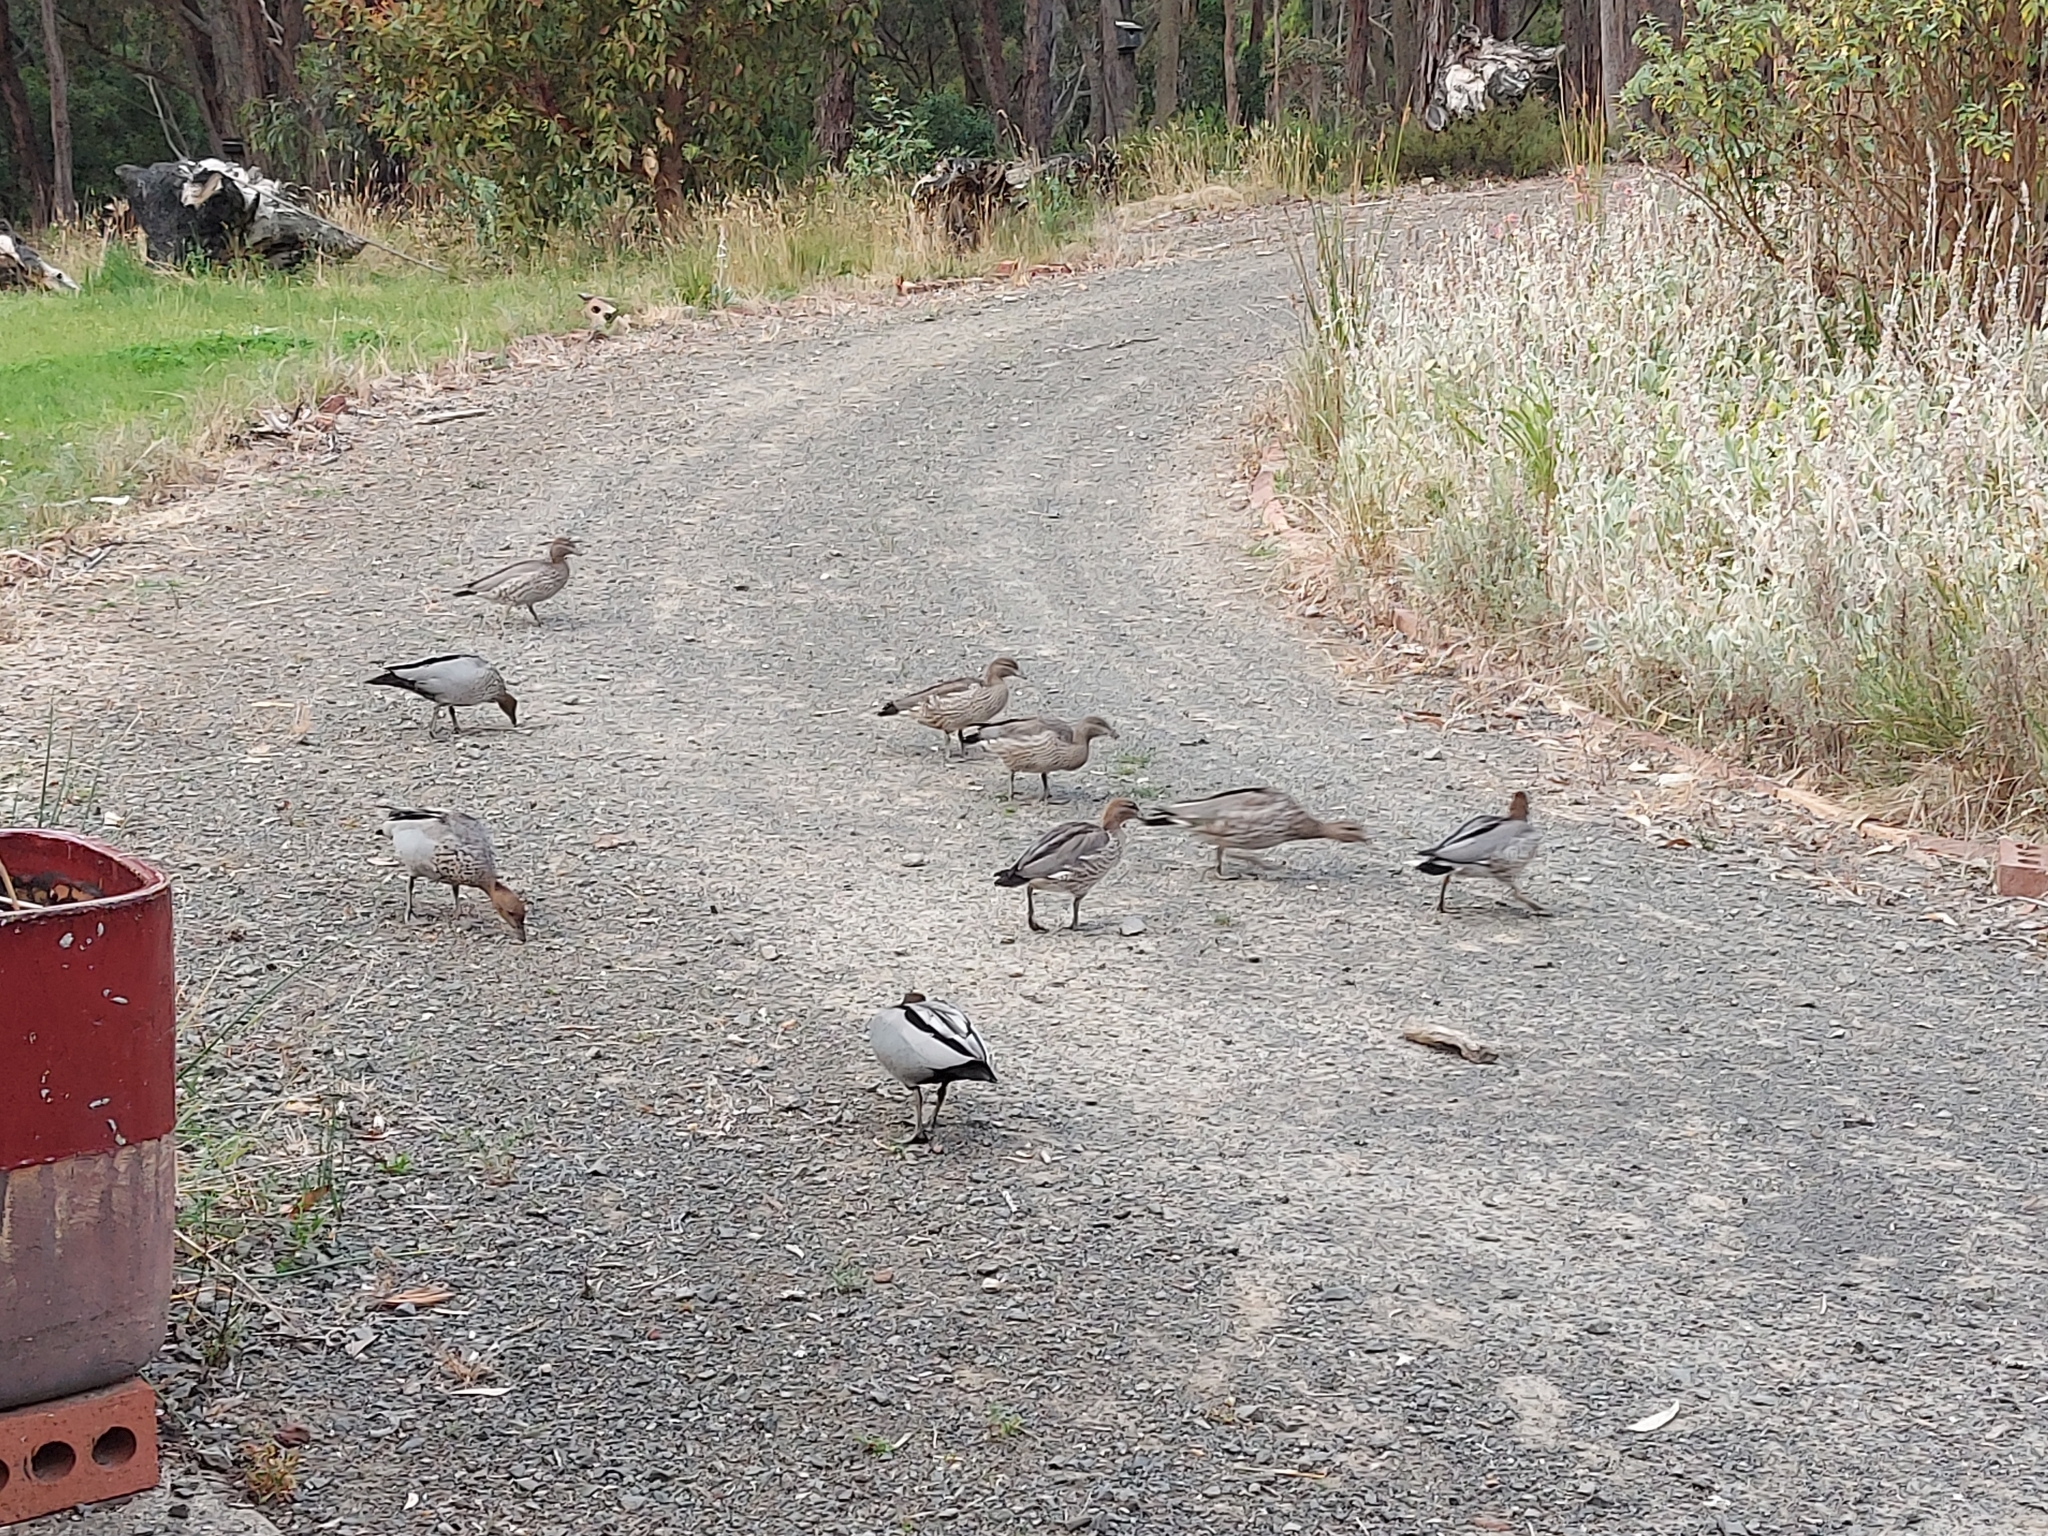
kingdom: Animalia
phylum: Chordata
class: Aves
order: Anseriformes
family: Anatidae
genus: Chenonetta
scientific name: Chenonetta jubata
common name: Maned duck
